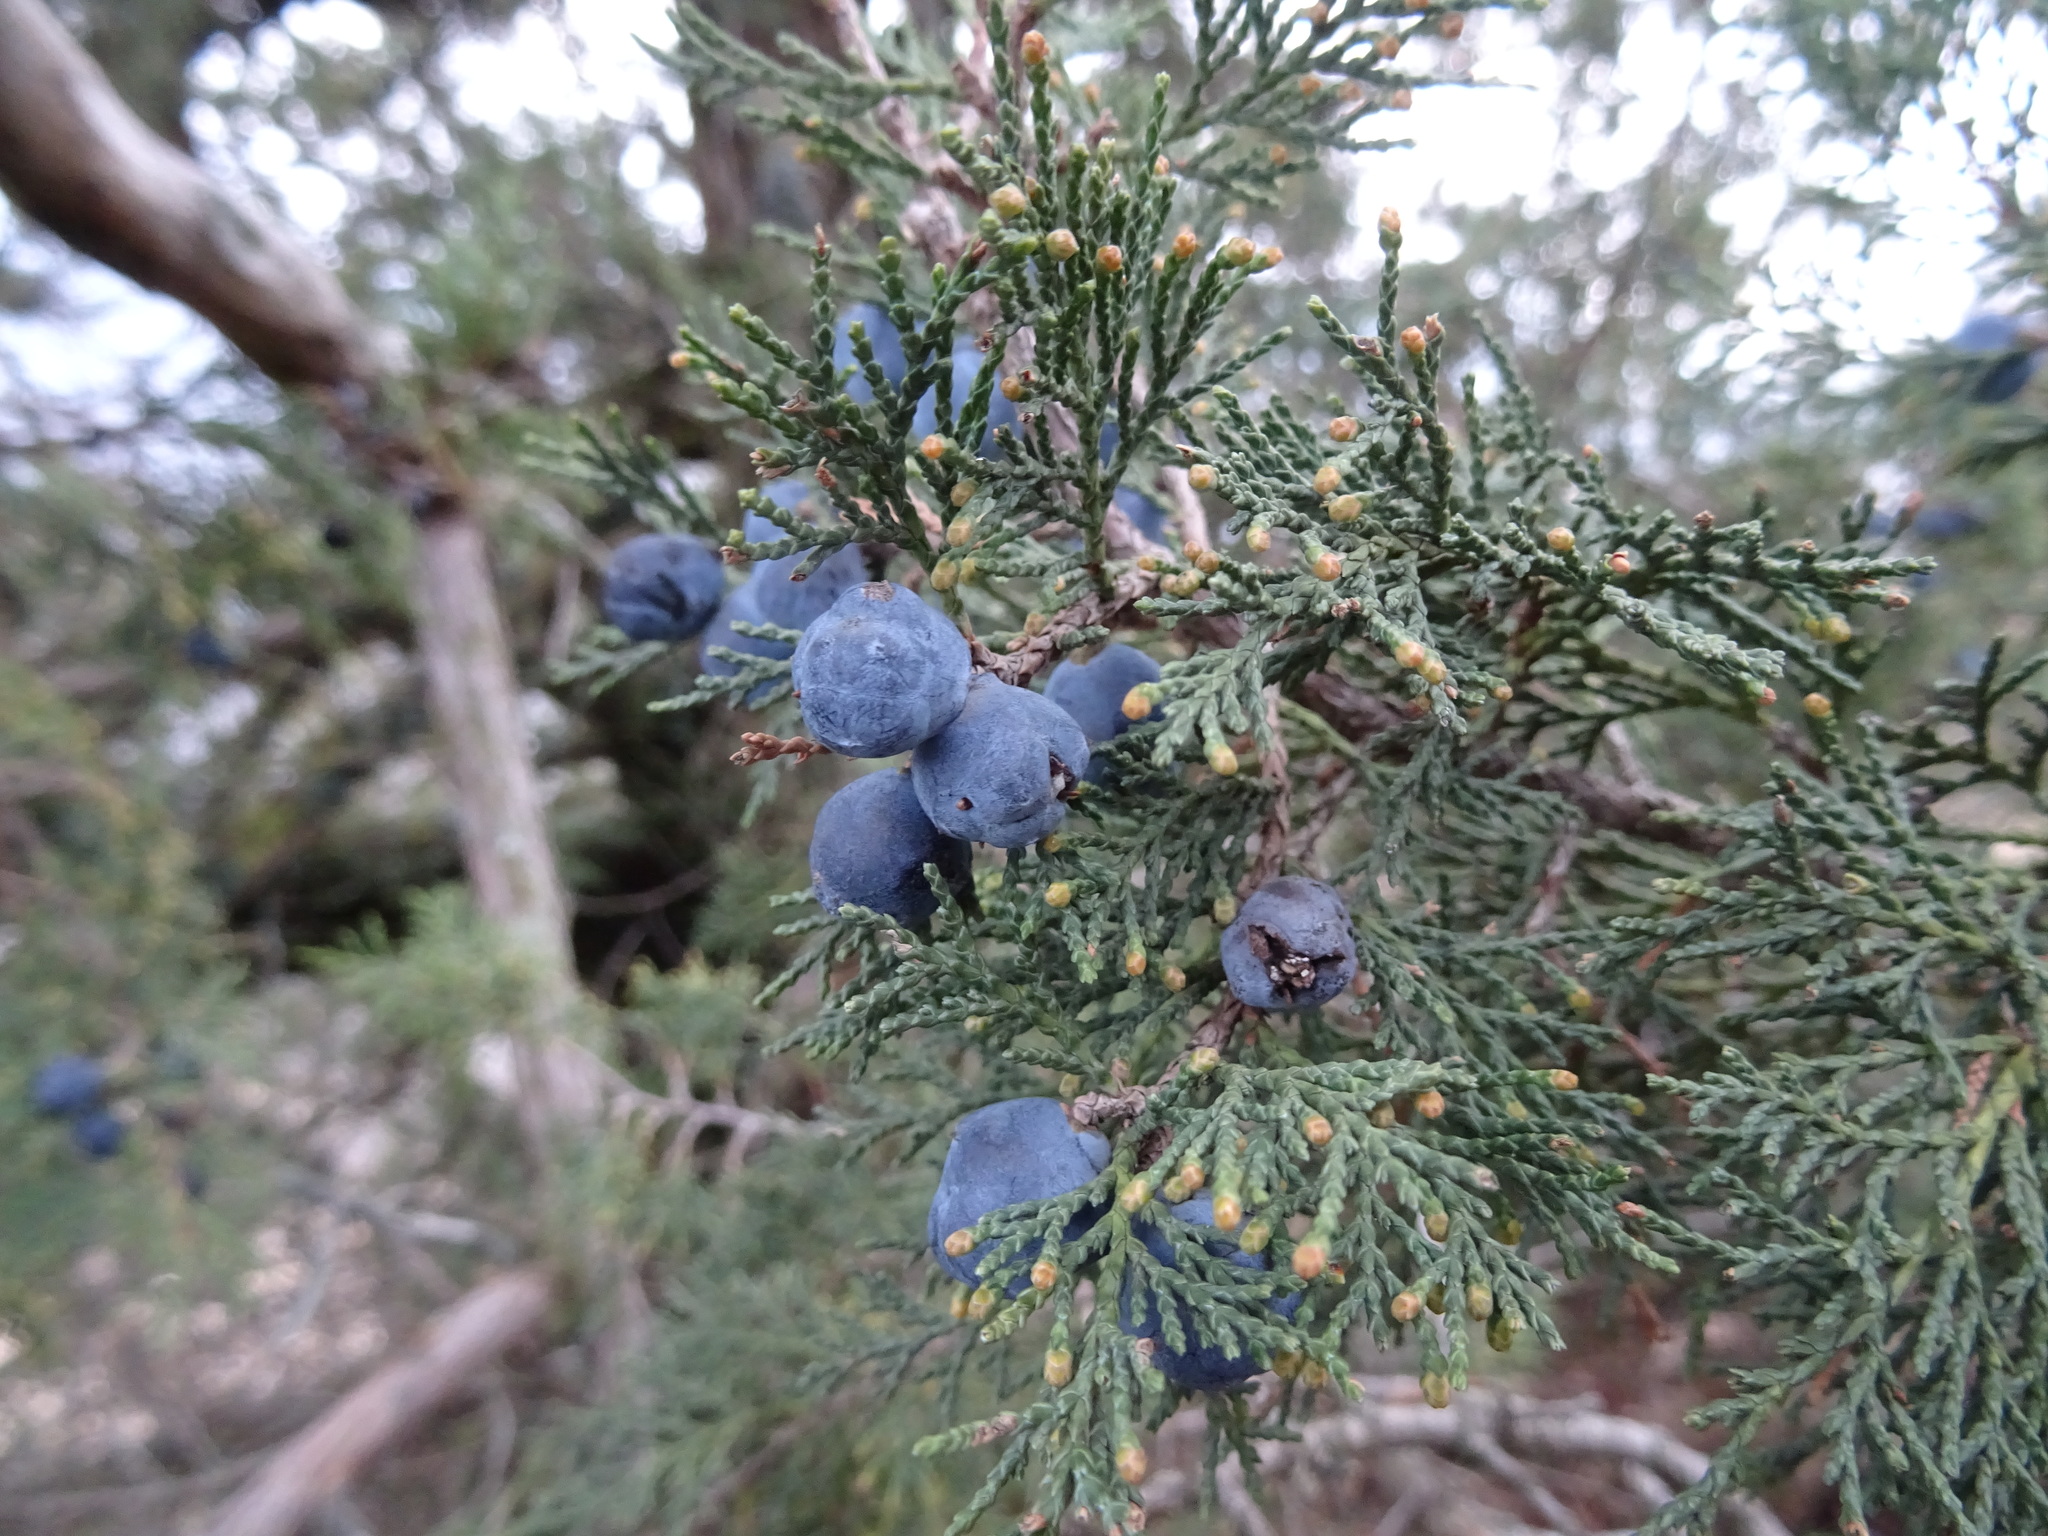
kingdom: Plantae
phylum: Tracheophyta
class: Pinopsida
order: Pinales
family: Cupressaceae
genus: Juniperus
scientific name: Juniperus excelsa
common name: Crimean juniper
